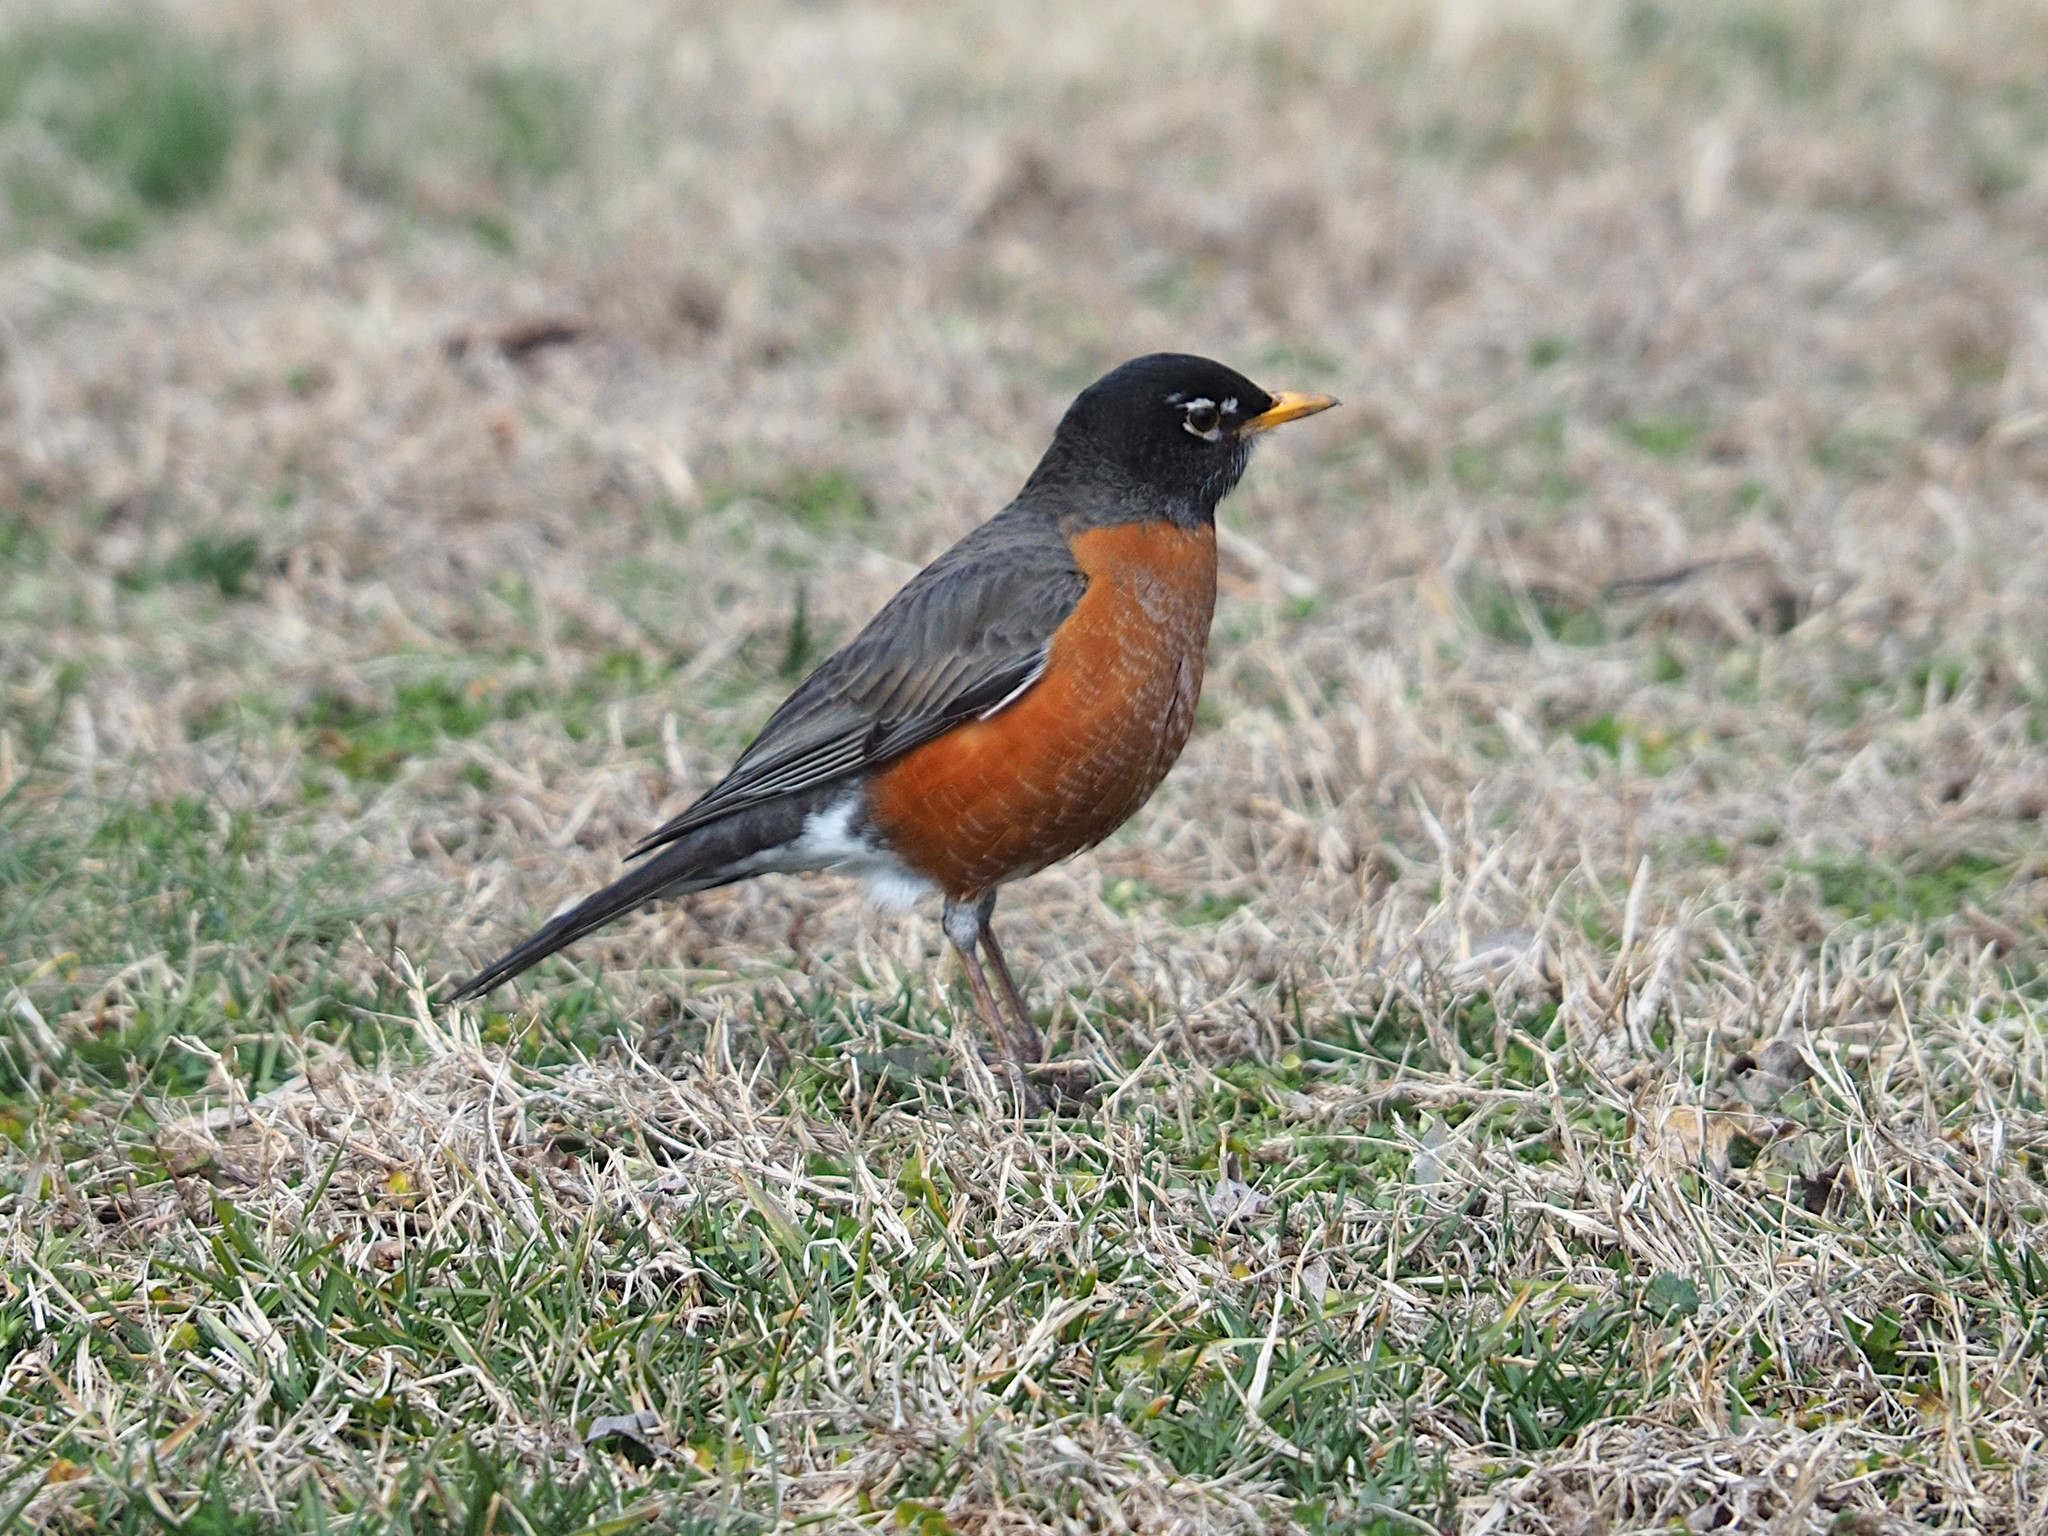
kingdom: Animalia
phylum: Chordata
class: Aves
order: Passeriformes
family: Turdidae
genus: Turdus
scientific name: Turdus migratorius
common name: American robin
